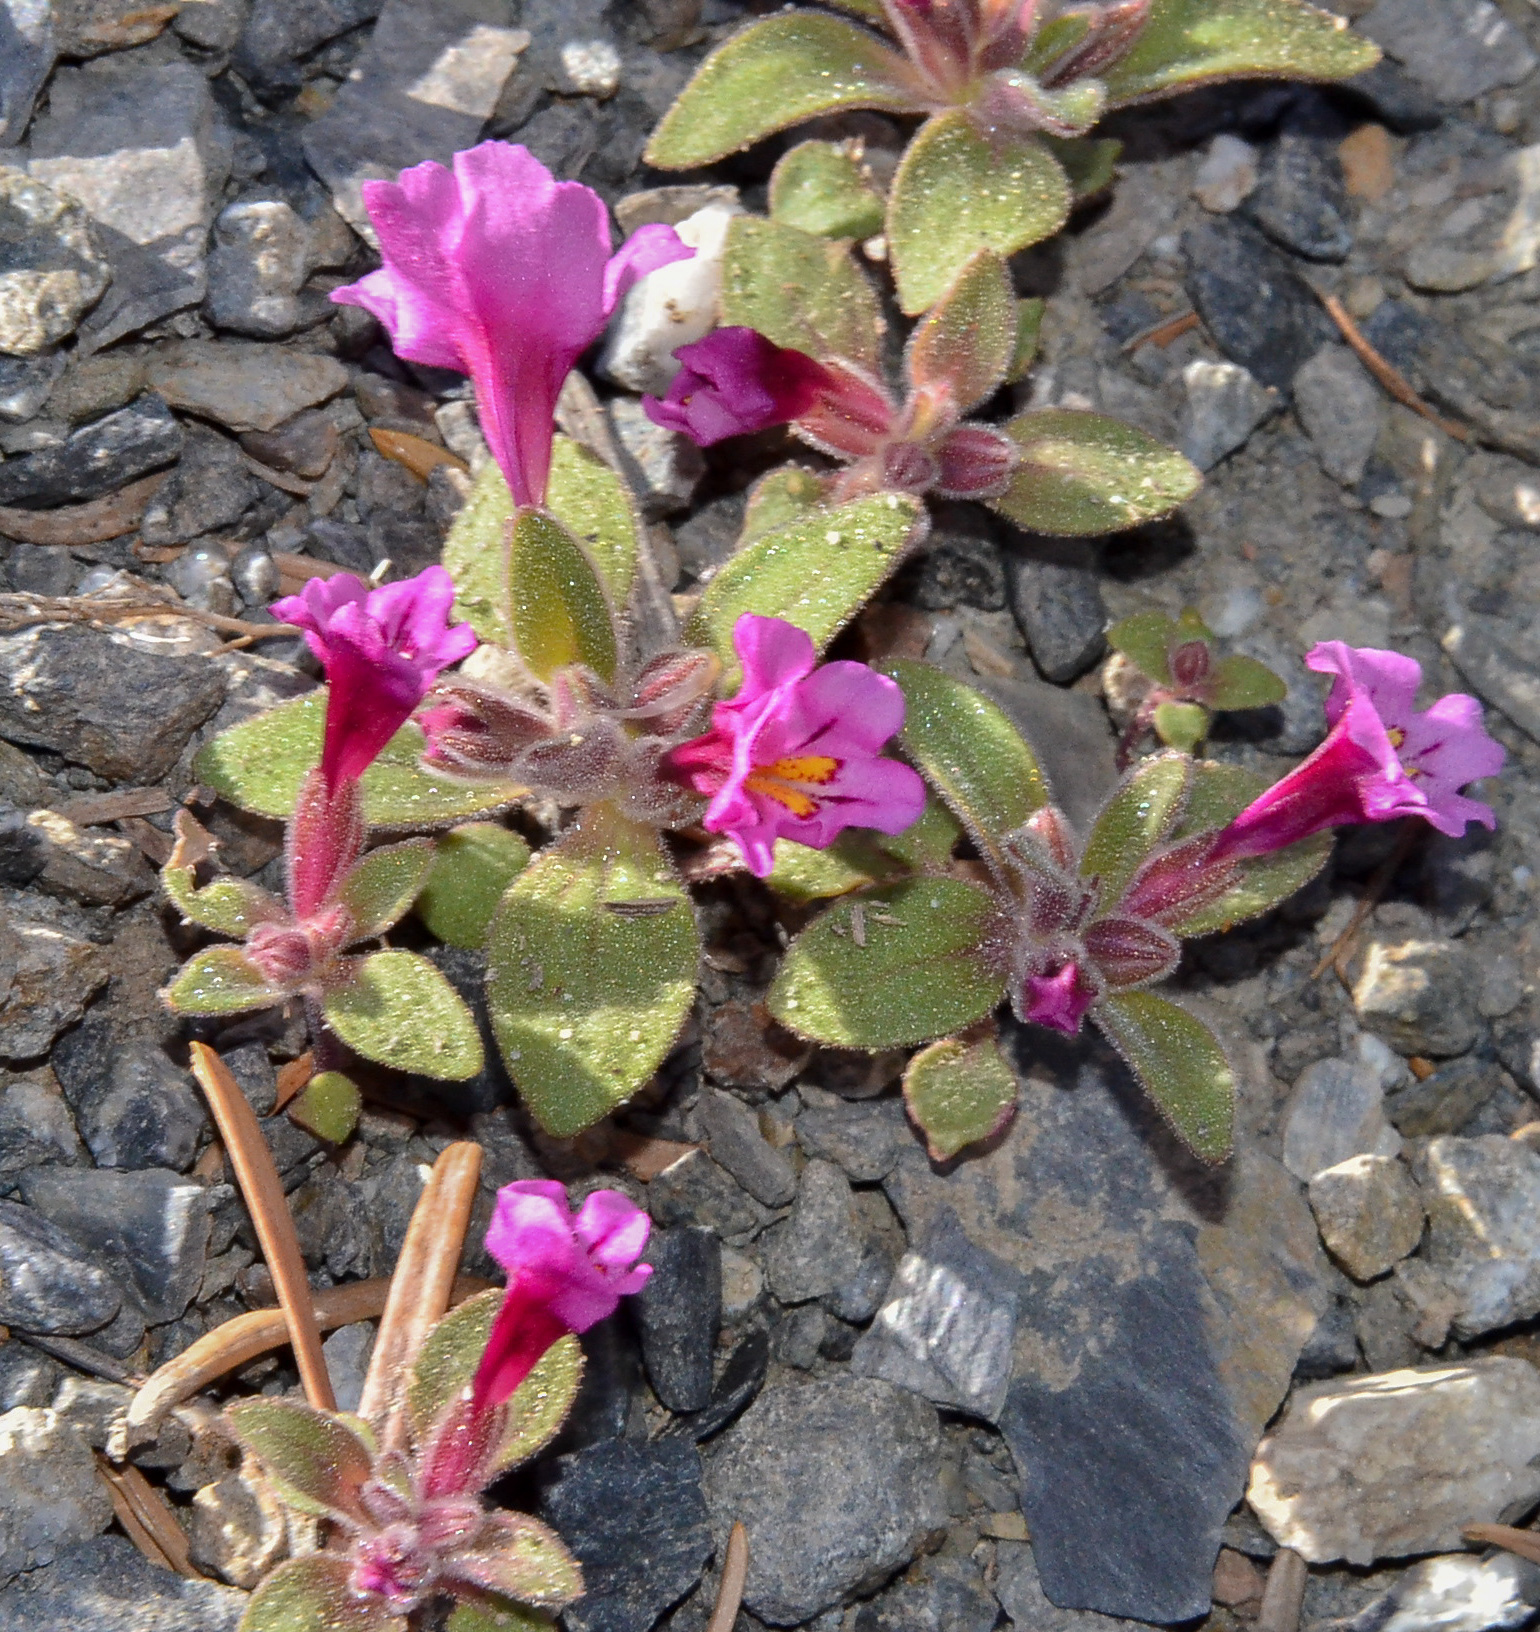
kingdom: Plantae
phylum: Tracheophyta
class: Magnoliopsida
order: Lamiales
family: Phrymaceae
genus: Diplacus
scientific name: Diplacus nanus
